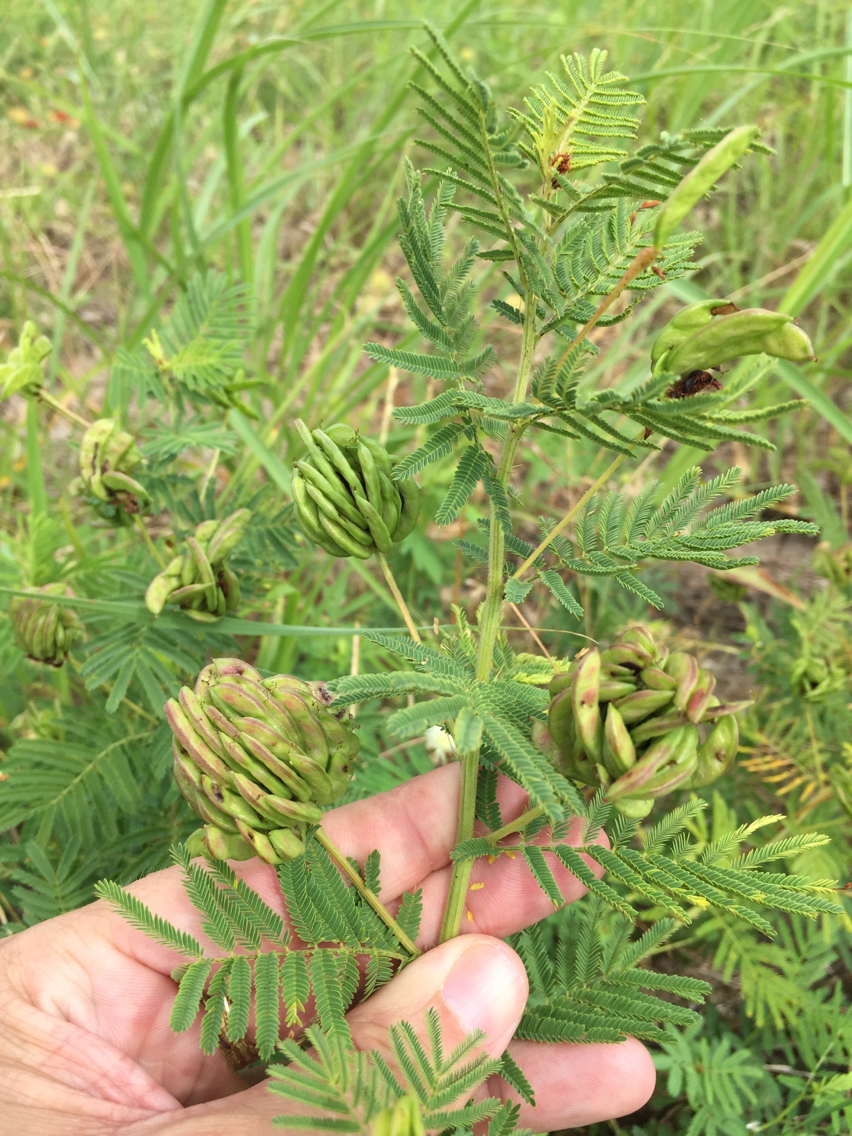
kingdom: Plantae
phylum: Tracheophyta
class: Magnoliopsida
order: Fabales
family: Fabaceae
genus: Desmanthus
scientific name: Desmanthus illinoensis
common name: Illinois bundle-flower
